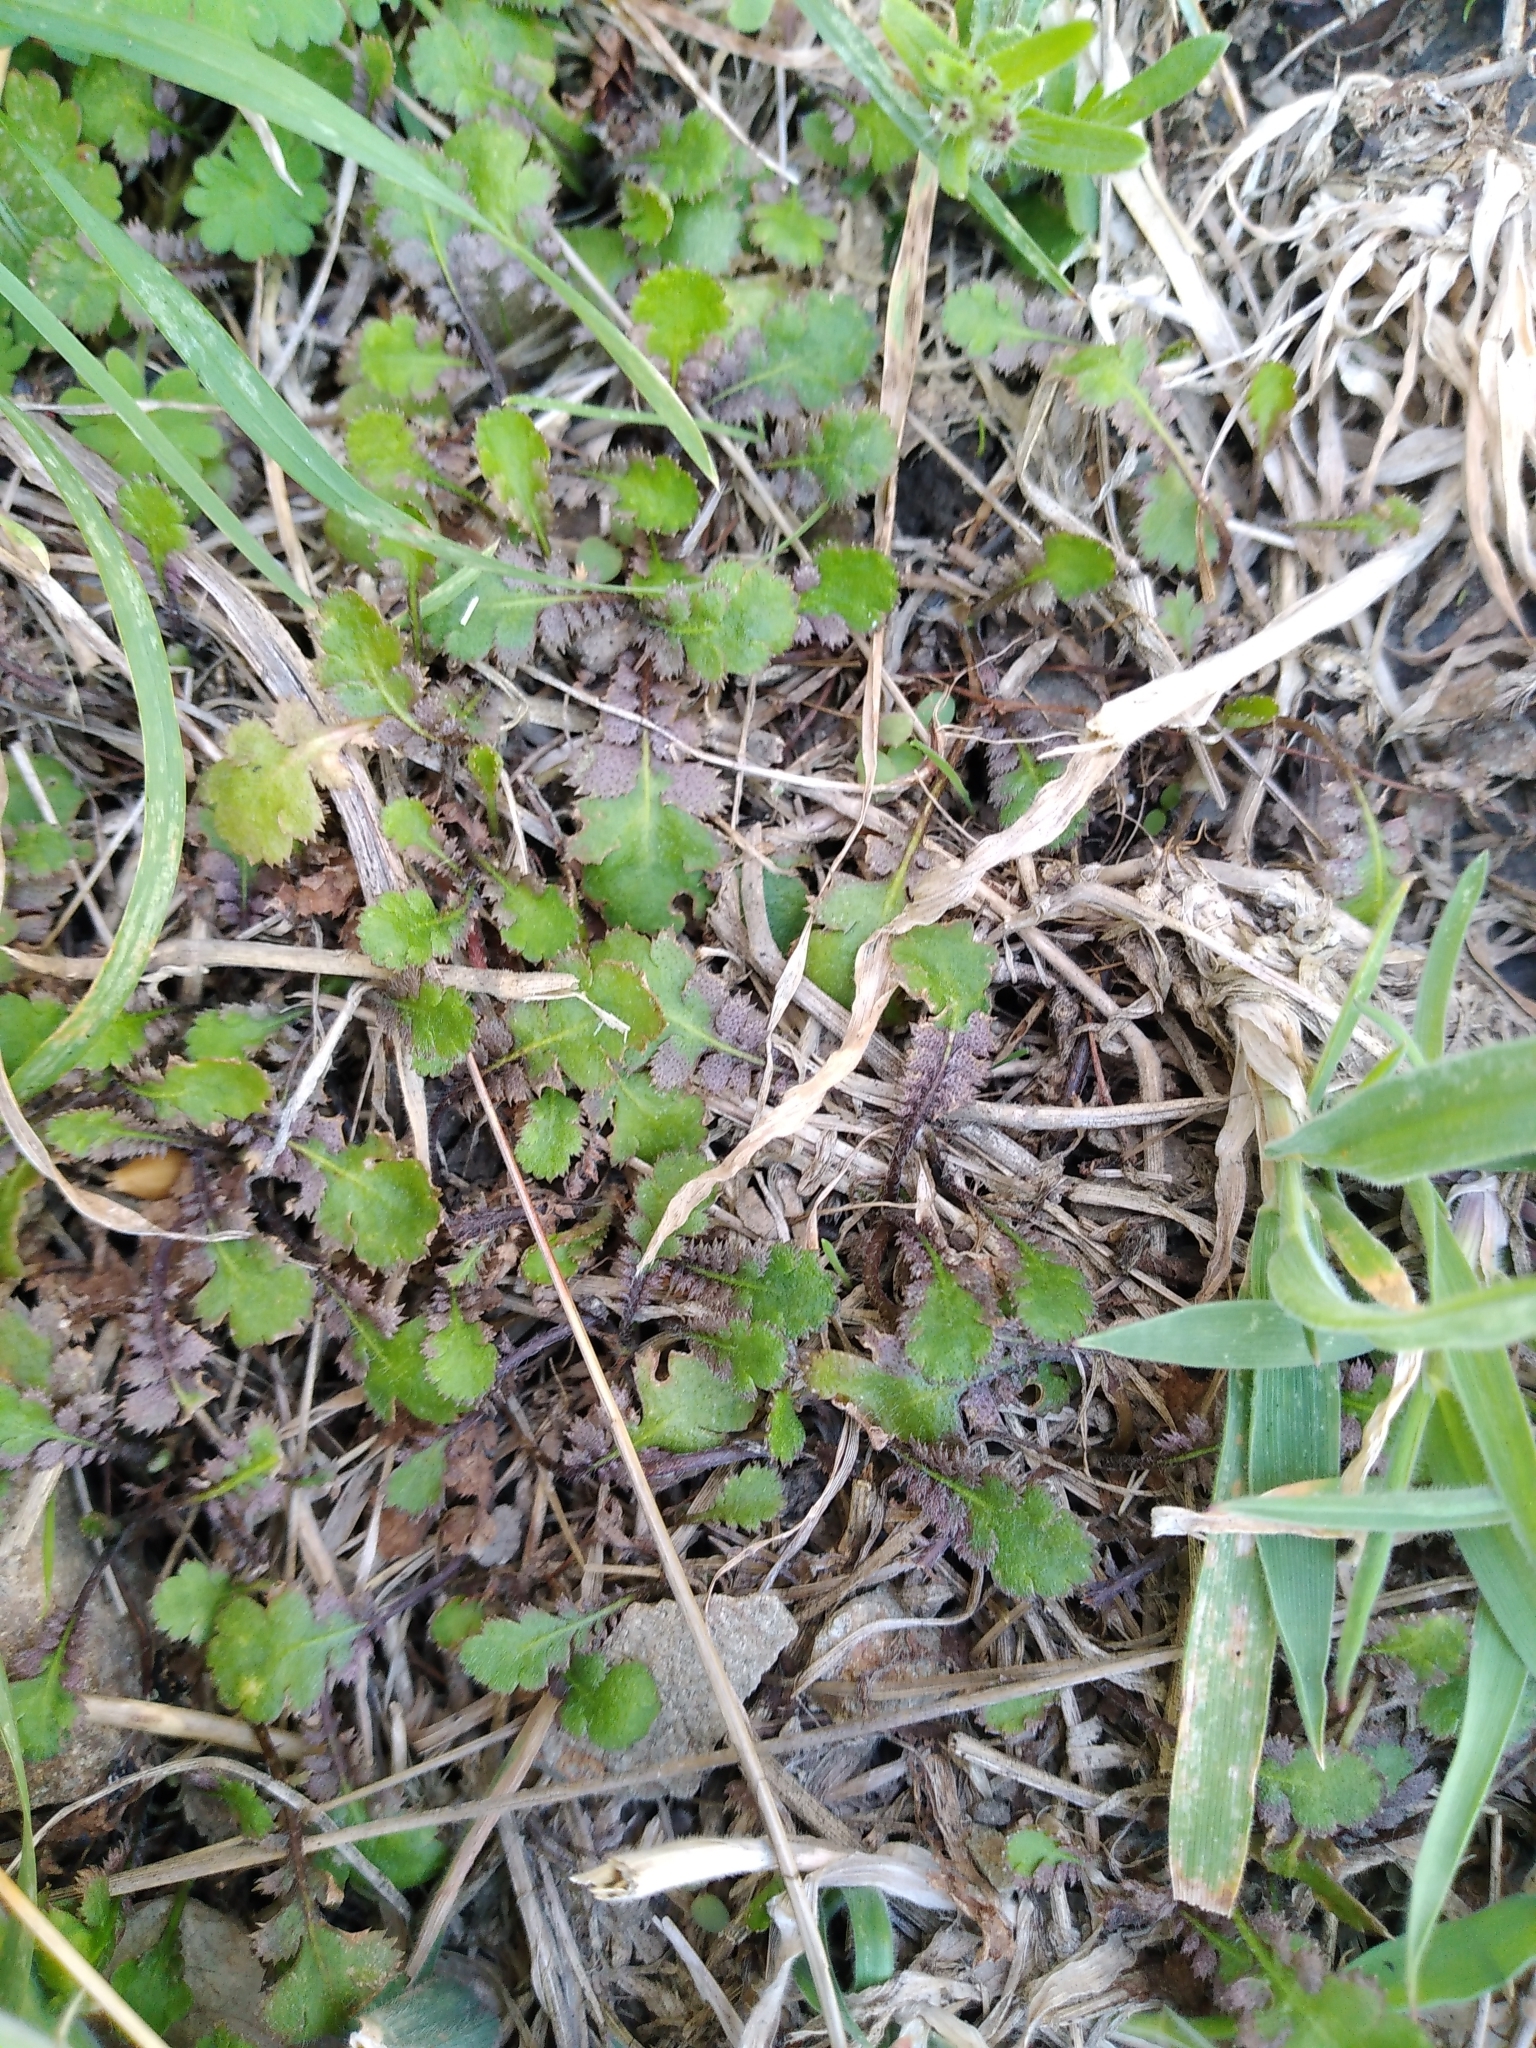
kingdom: Plantae
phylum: Tracheophyta
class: Magnoliopsida
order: Asterales
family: Asteraceae
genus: Leptinella
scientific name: Leptinella squalida
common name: New zealand brass-buttons
